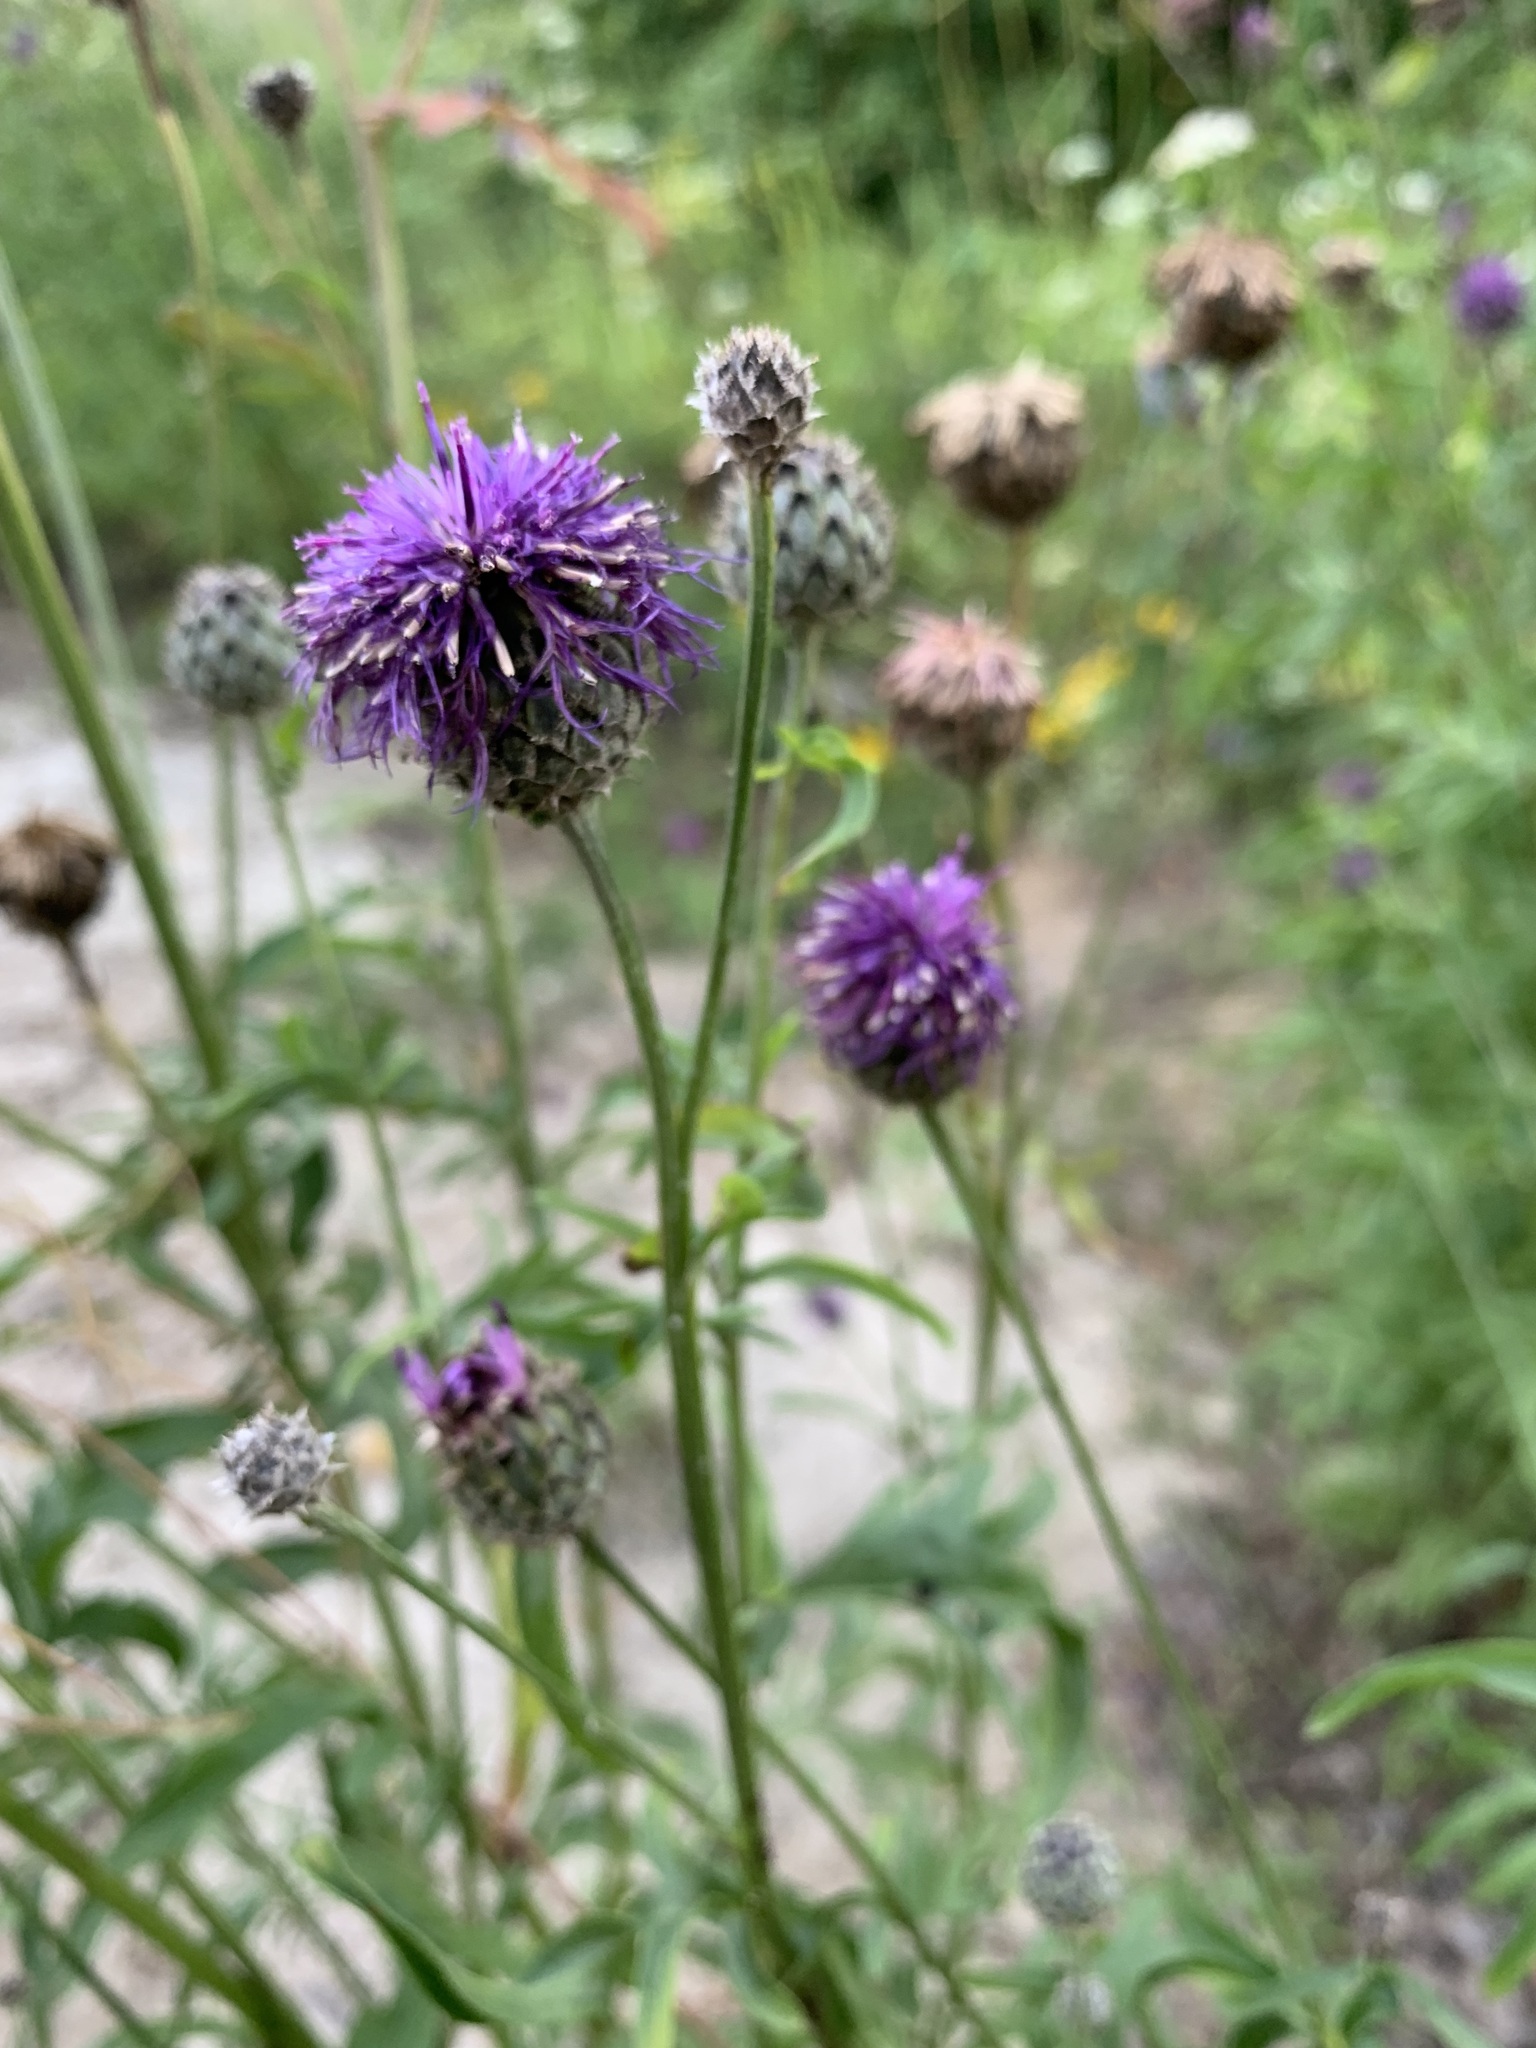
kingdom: Plantae
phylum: Tracheophyta
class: Magnoliopsida
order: Asterales
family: Asteraceae
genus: Centaurea
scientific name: Centaurea scabiosa
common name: Greater knapweed
